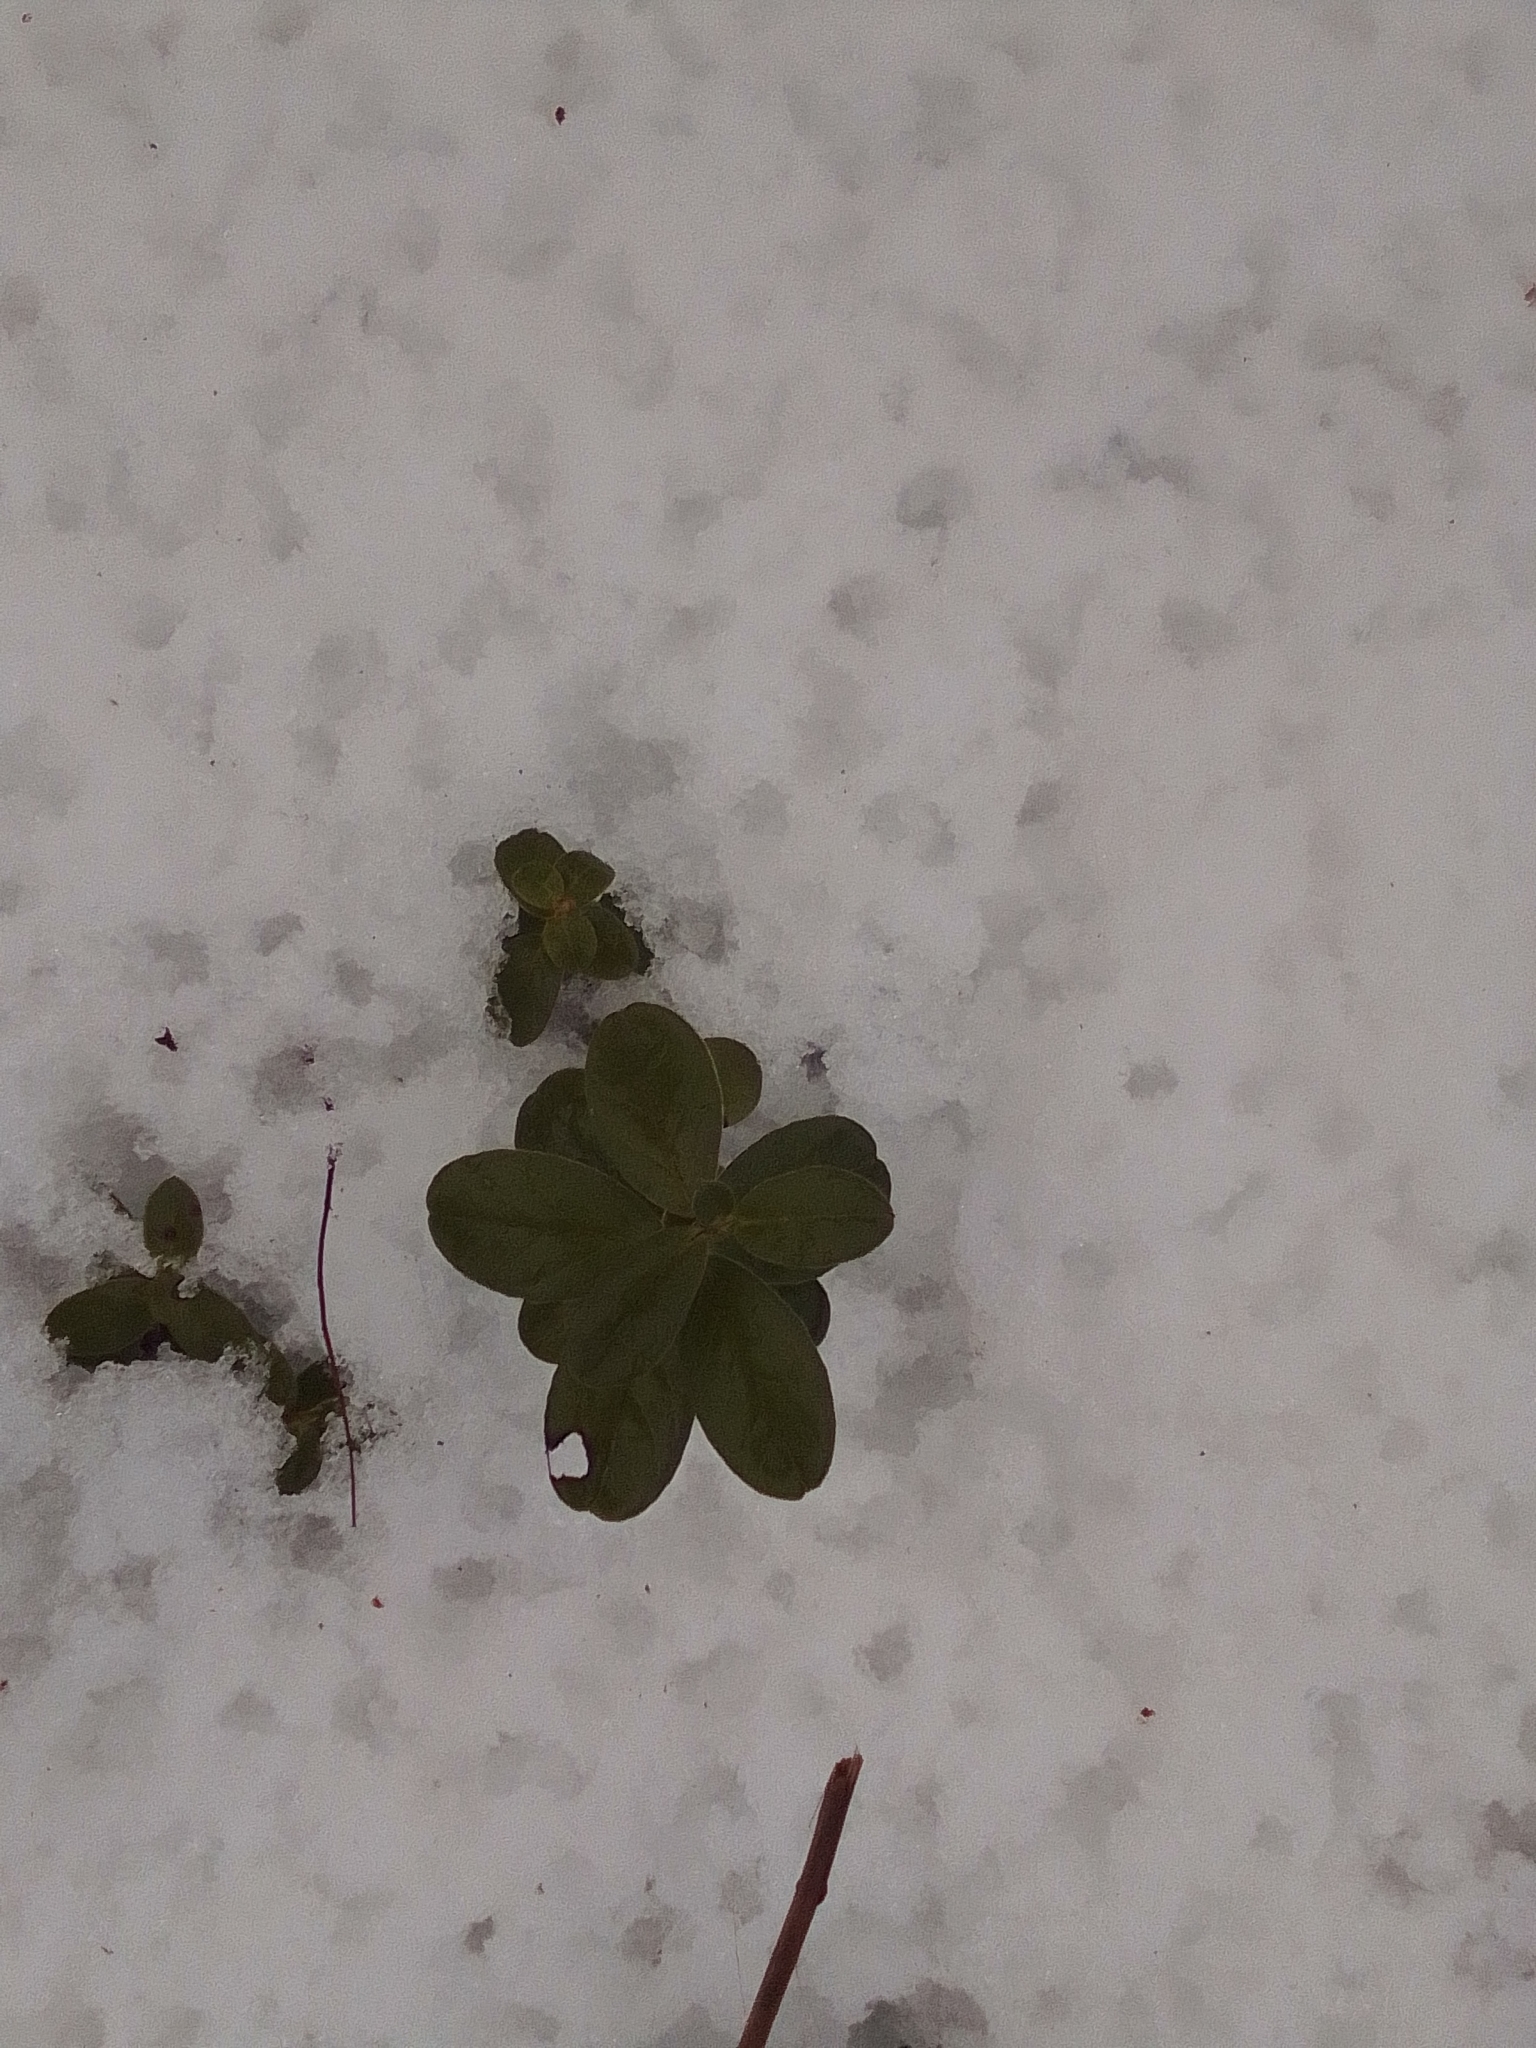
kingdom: Plantae
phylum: Tracheophyta
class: Magnoliopsida
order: Ericales
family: Ericaceae
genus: Vaccinium
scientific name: Vaccinium vitis-idaea
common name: Cowberry
